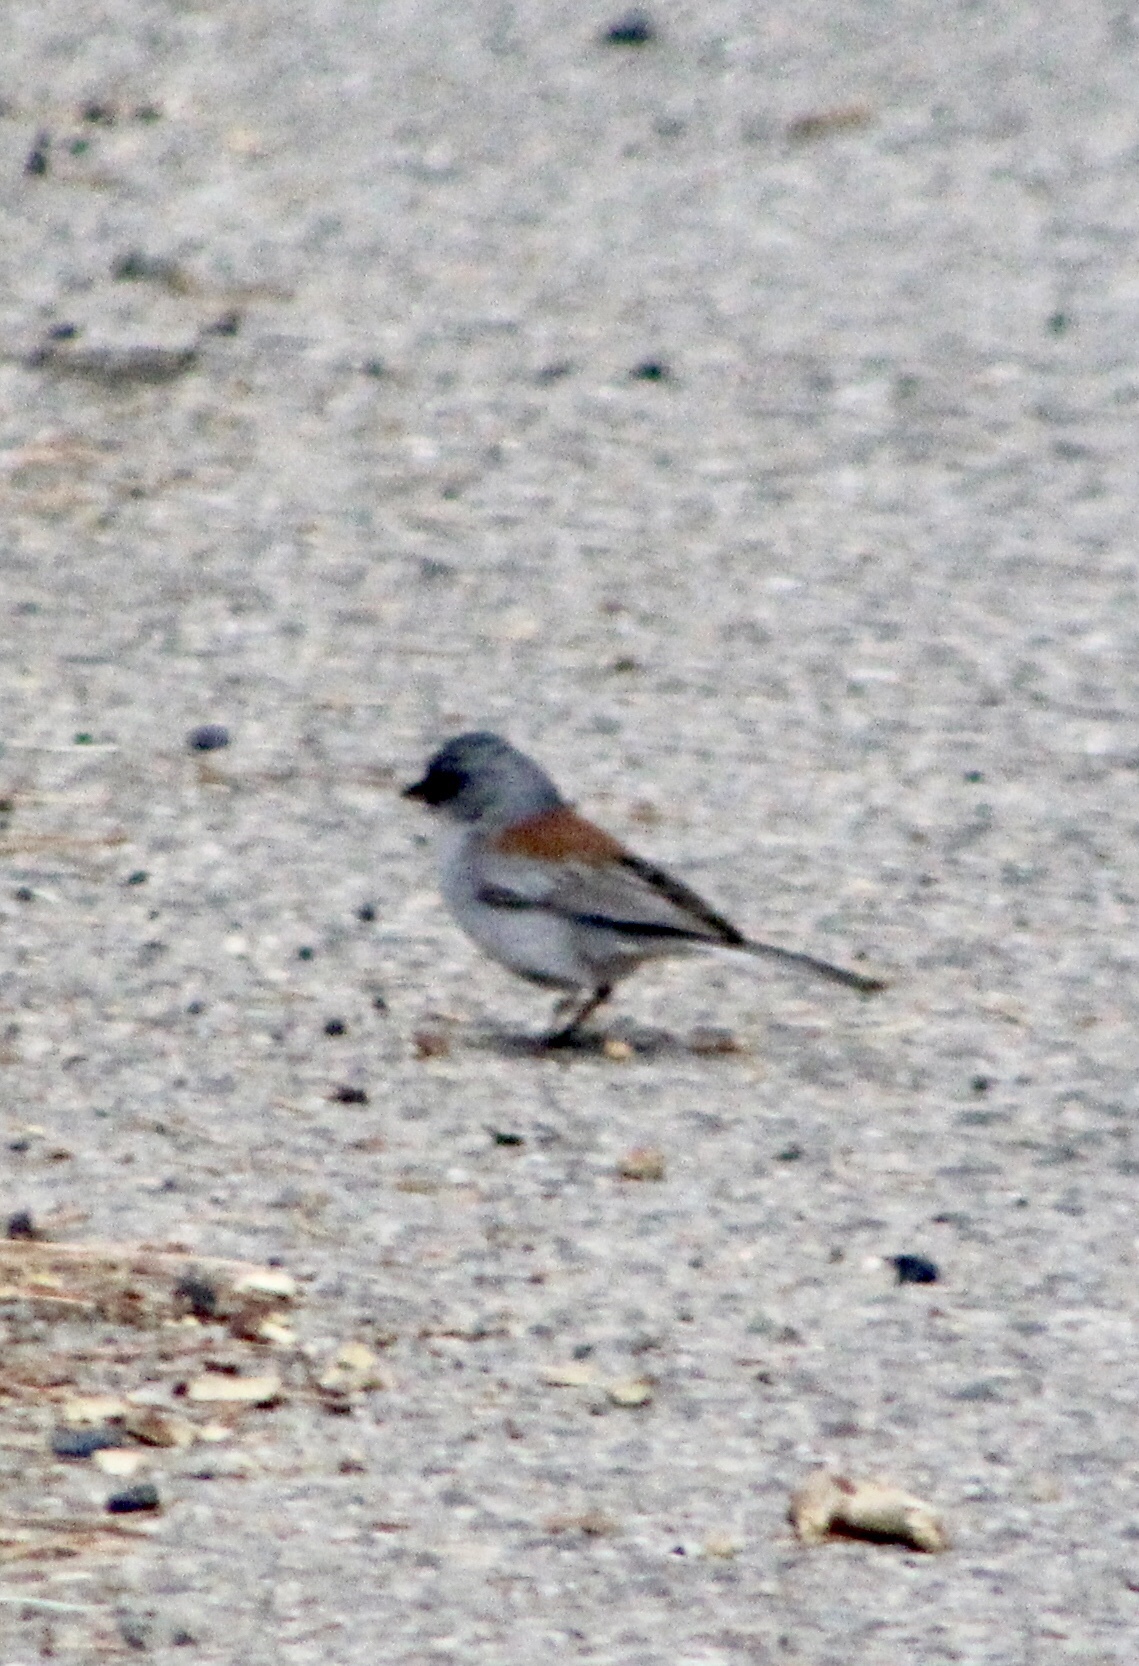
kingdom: Animalia
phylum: Chordata
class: Aves
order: Passeriformes
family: Passerellidae
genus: Junco
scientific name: Junco hyemalis
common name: Dark-eyed junco
